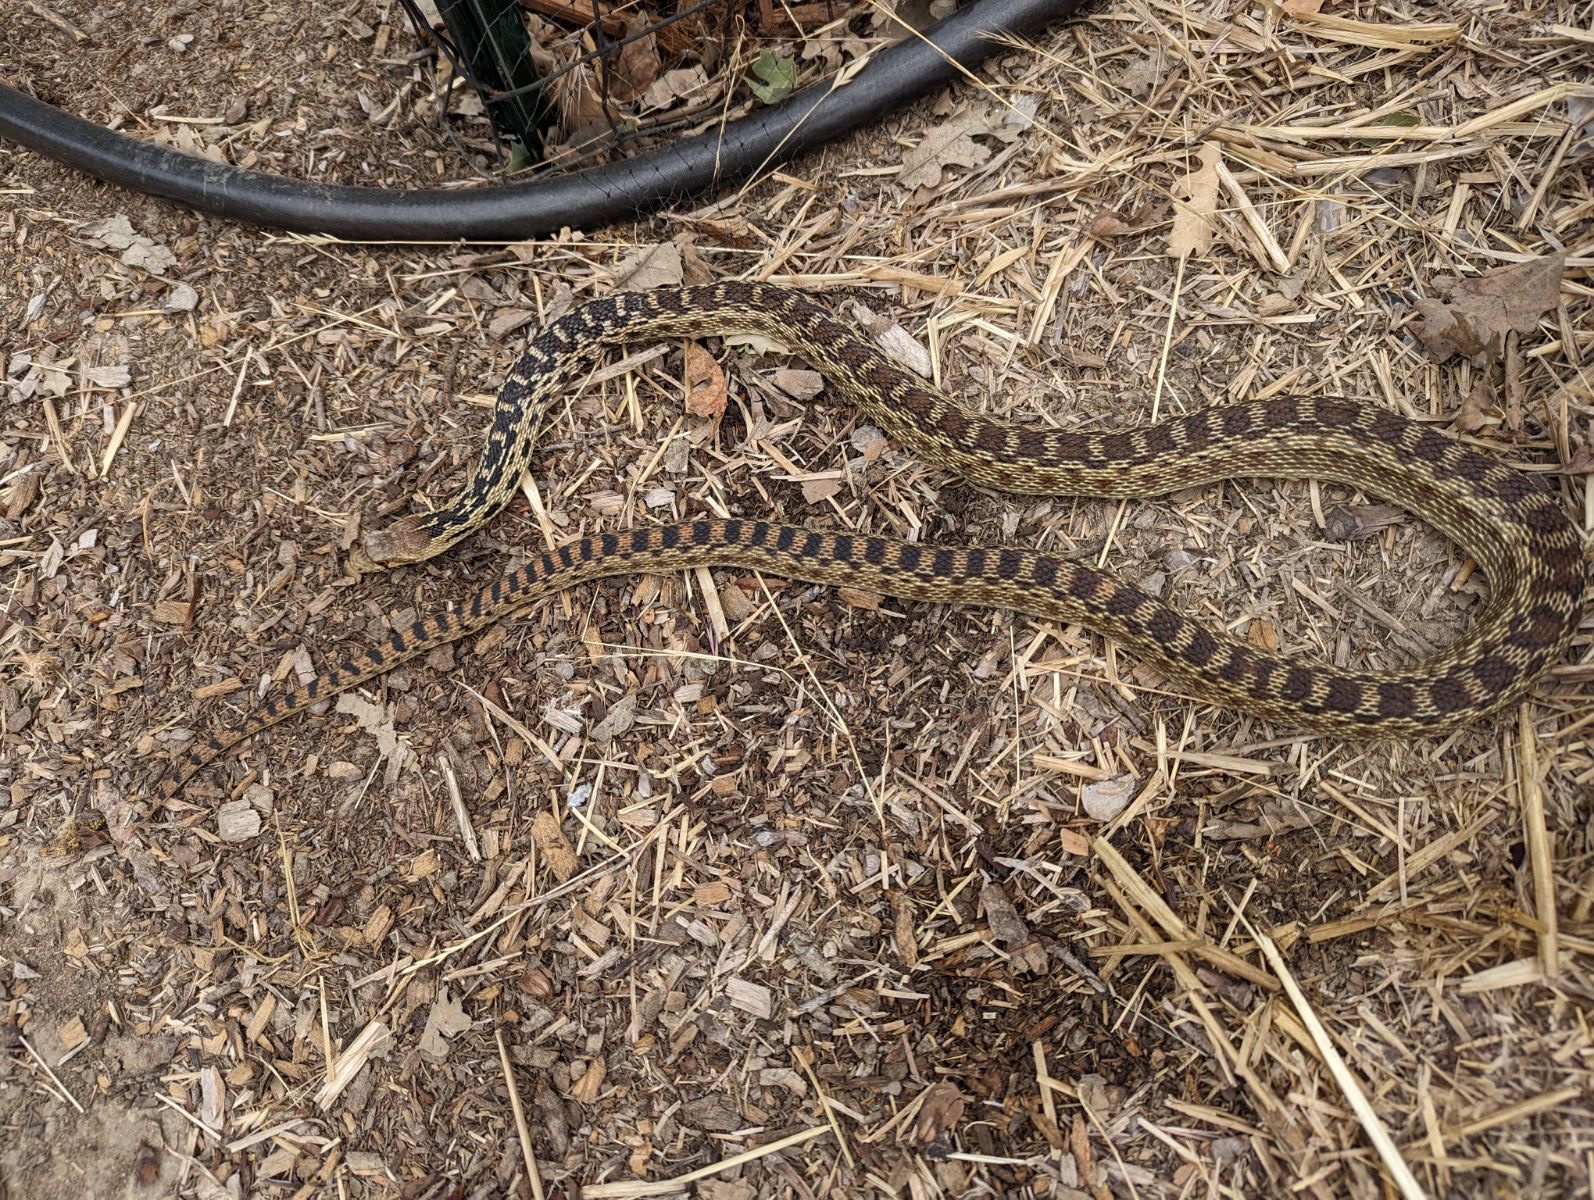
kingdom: Animalia
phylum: Chordata
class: Squamata
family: Colubridae
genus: Pituophis
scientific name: Pituophis catenifer
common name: Gopher snake
